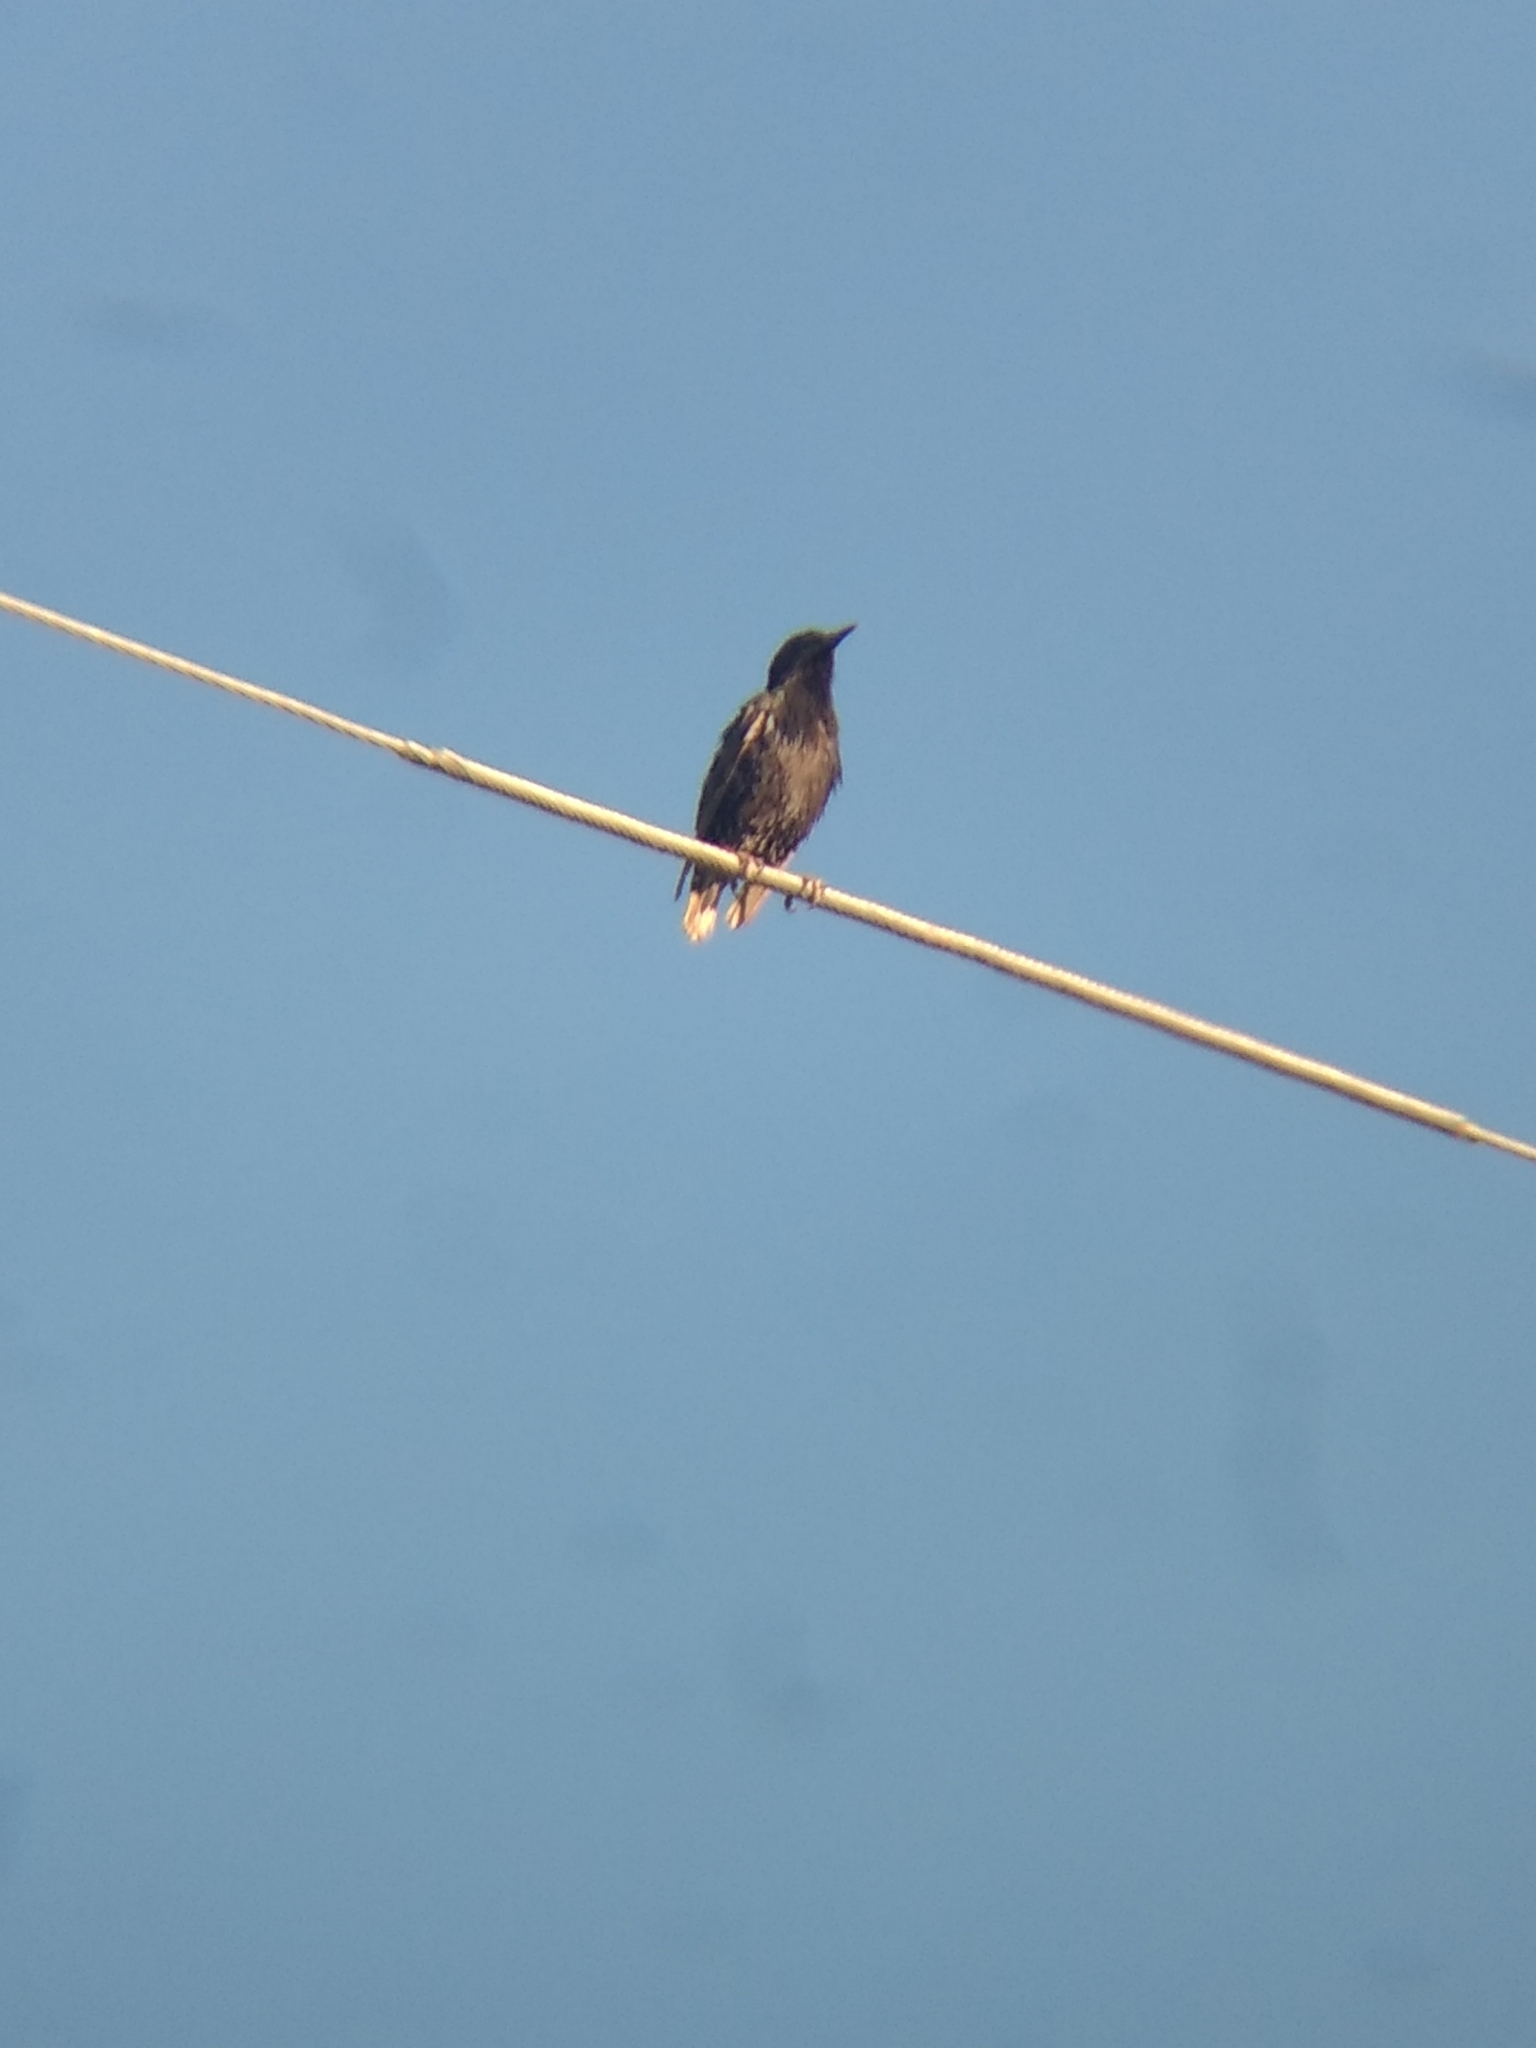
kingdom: Animalia
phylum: Chordata
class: Aves
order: Passeriformes
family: Sturnidae
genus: Sturnus
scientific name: Sturnus vulgaris
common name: Common starling
